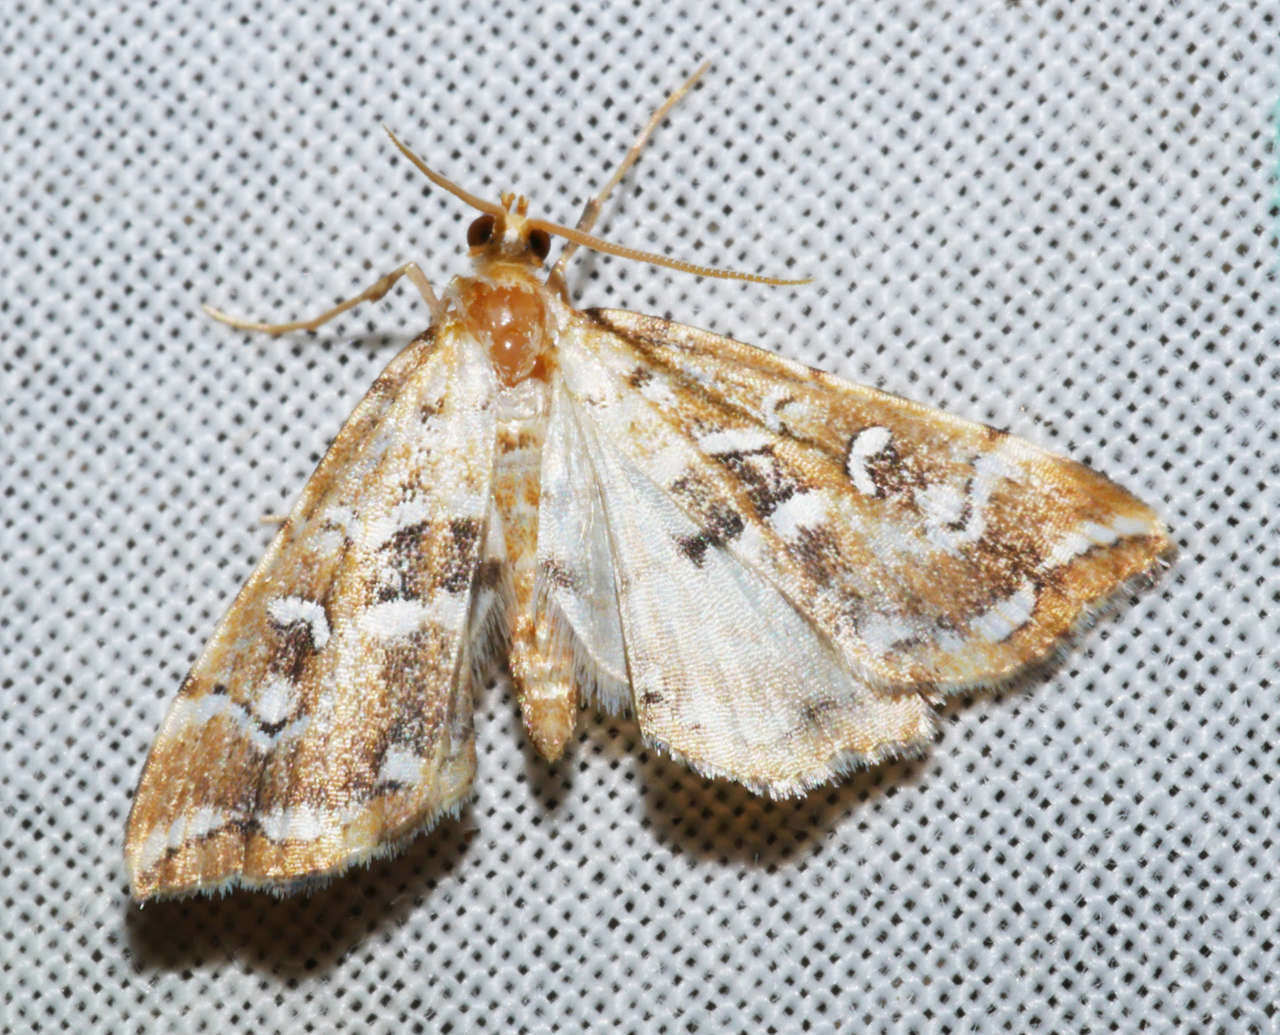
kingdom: Animalia
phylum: Arthropoda
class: Insecta
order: Lepidoptera
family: Pyralidae
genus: Musotima
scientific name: Musotima acrias
